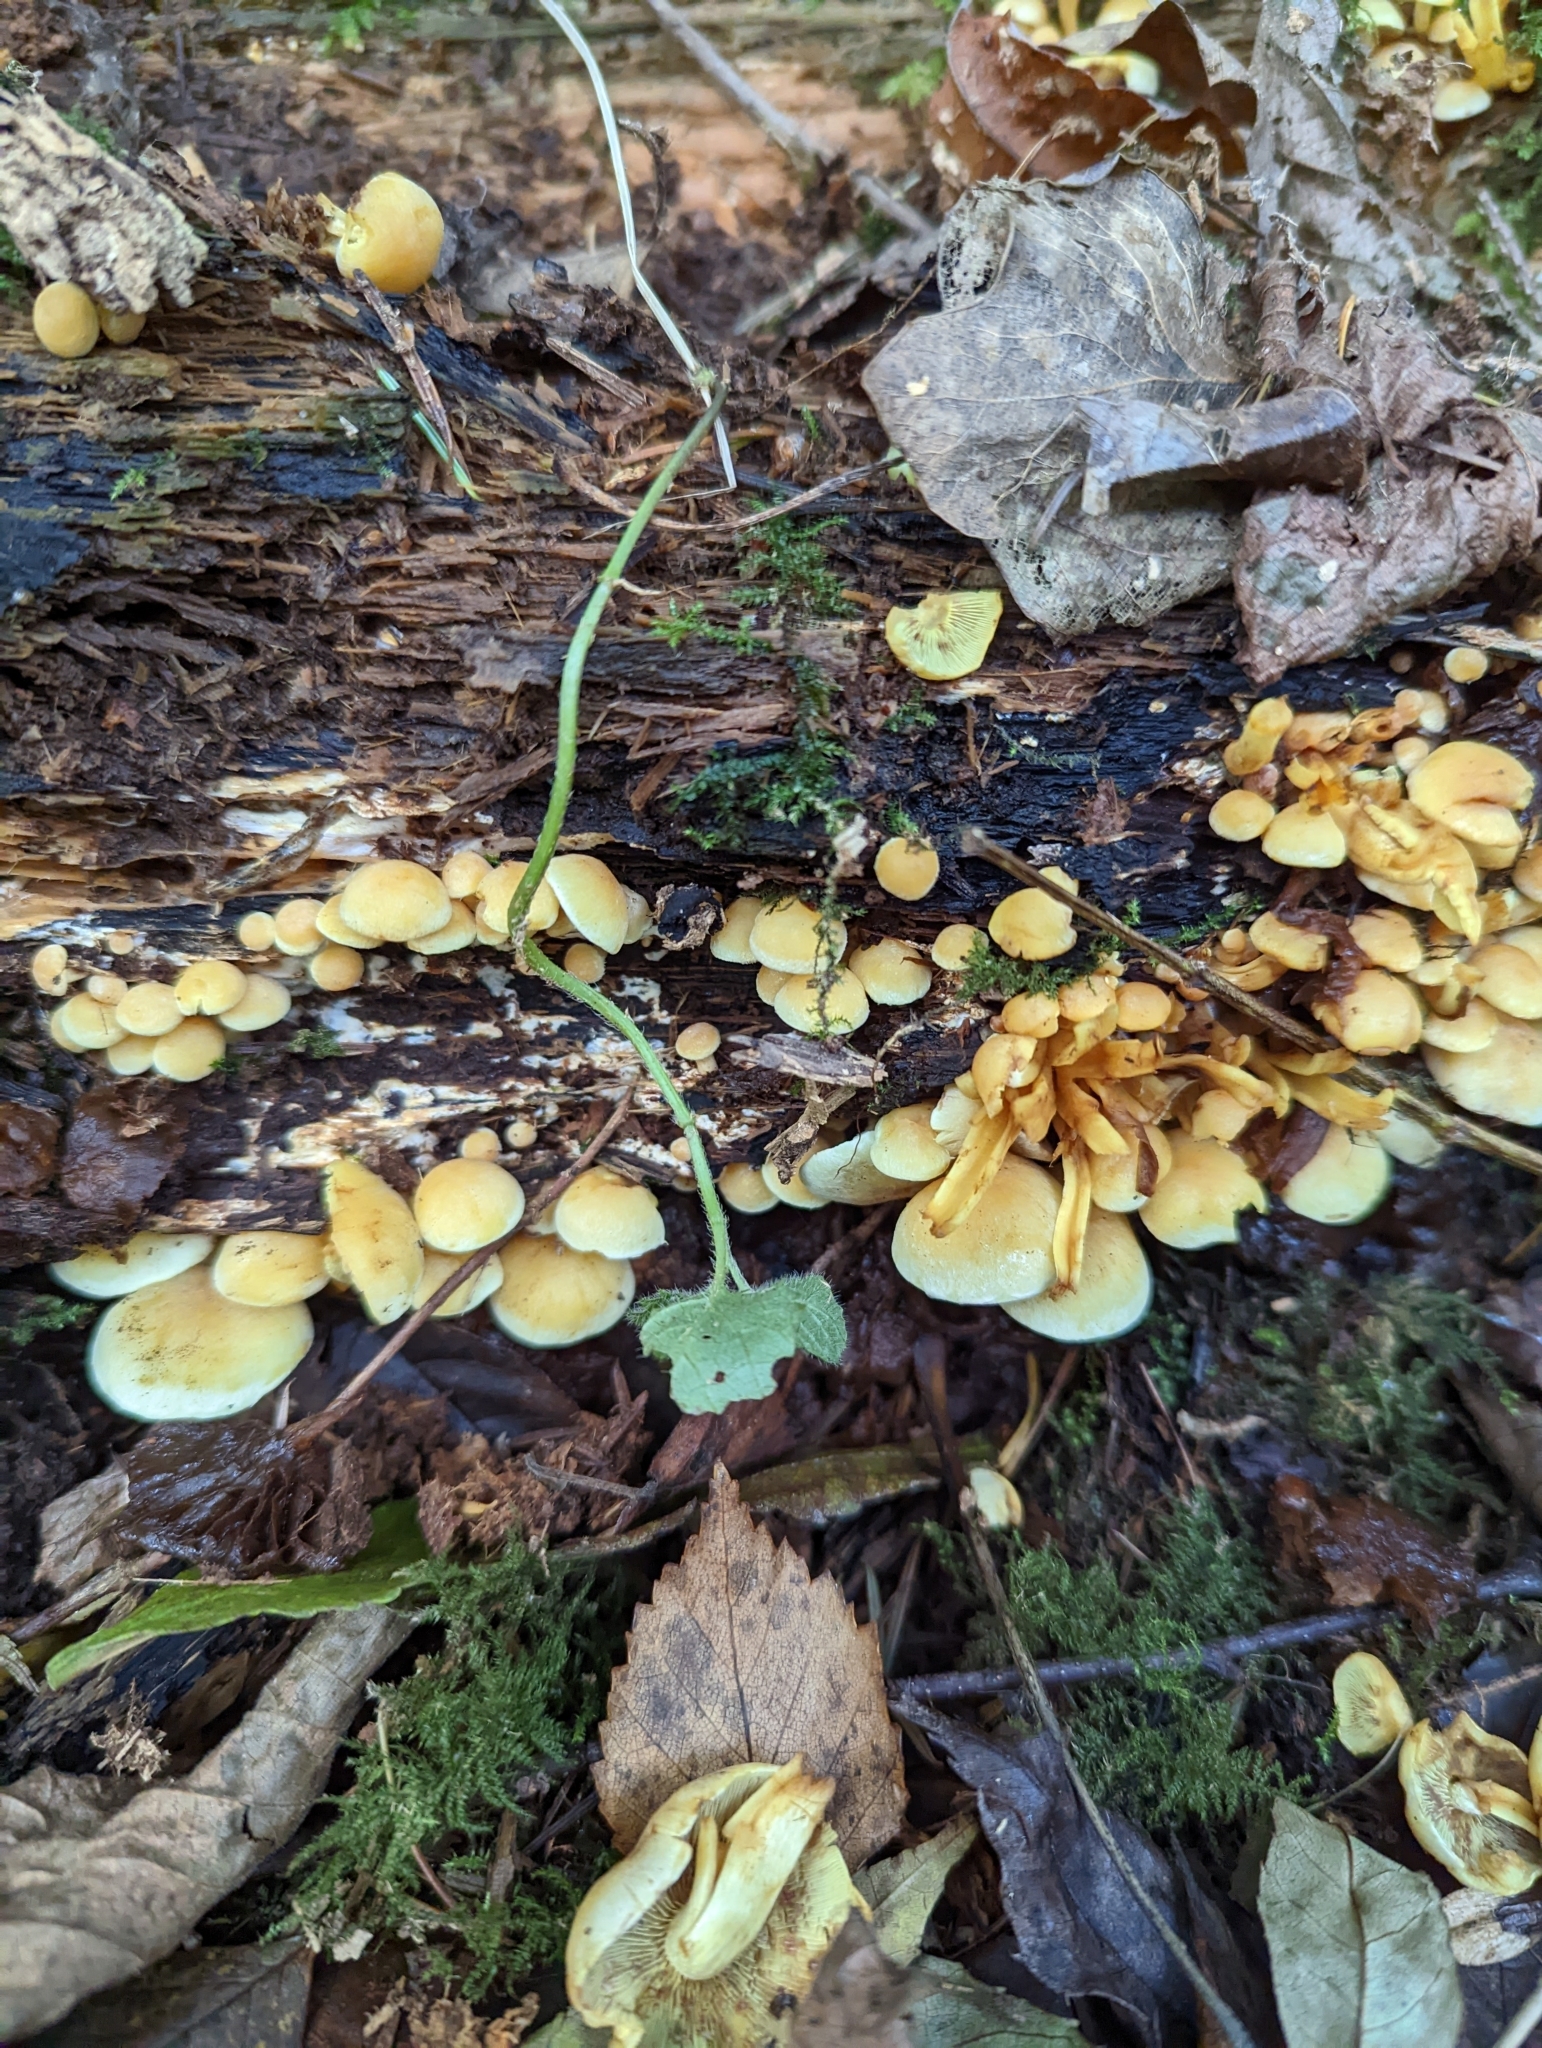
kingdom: Fungi
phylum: Basidiomycota
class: Agaricomycetes
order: Agaricales
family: Strophariaceae
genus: Hypholoma
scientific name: Hypholoma fasciculare
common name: Sulphur tuft
